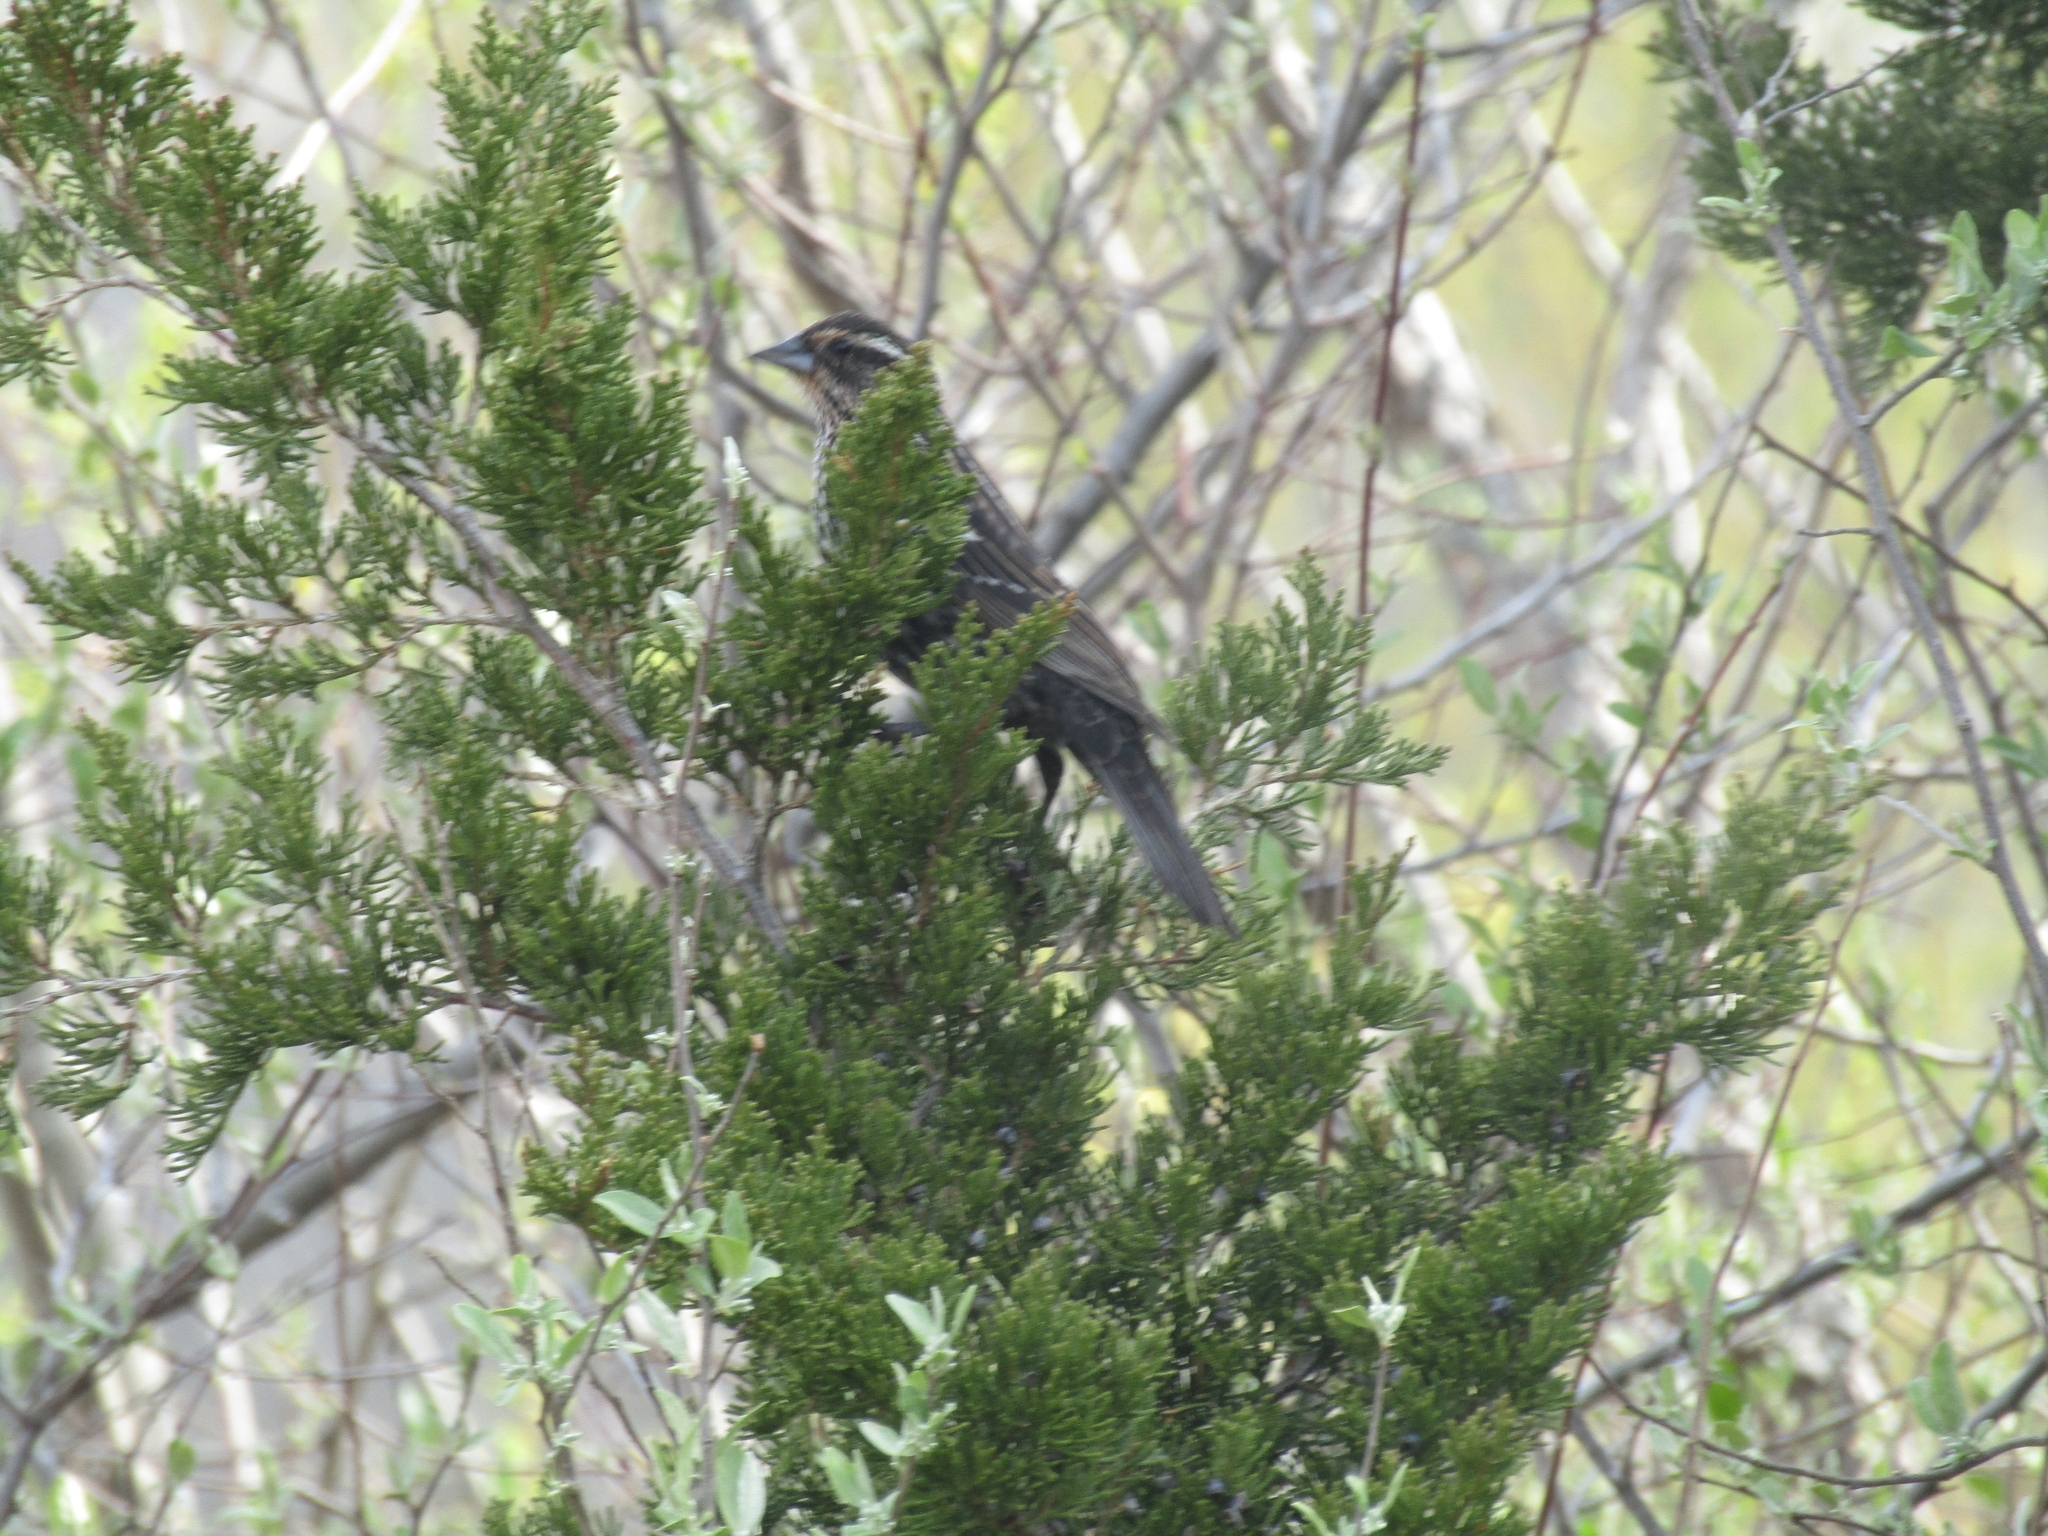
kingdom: Animalia
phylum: Chordata
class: Aves
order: Passeriformes
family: Icteridae
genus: Agelaius
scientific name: Agelaius phoeniceus
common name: Red-winged blackbird
